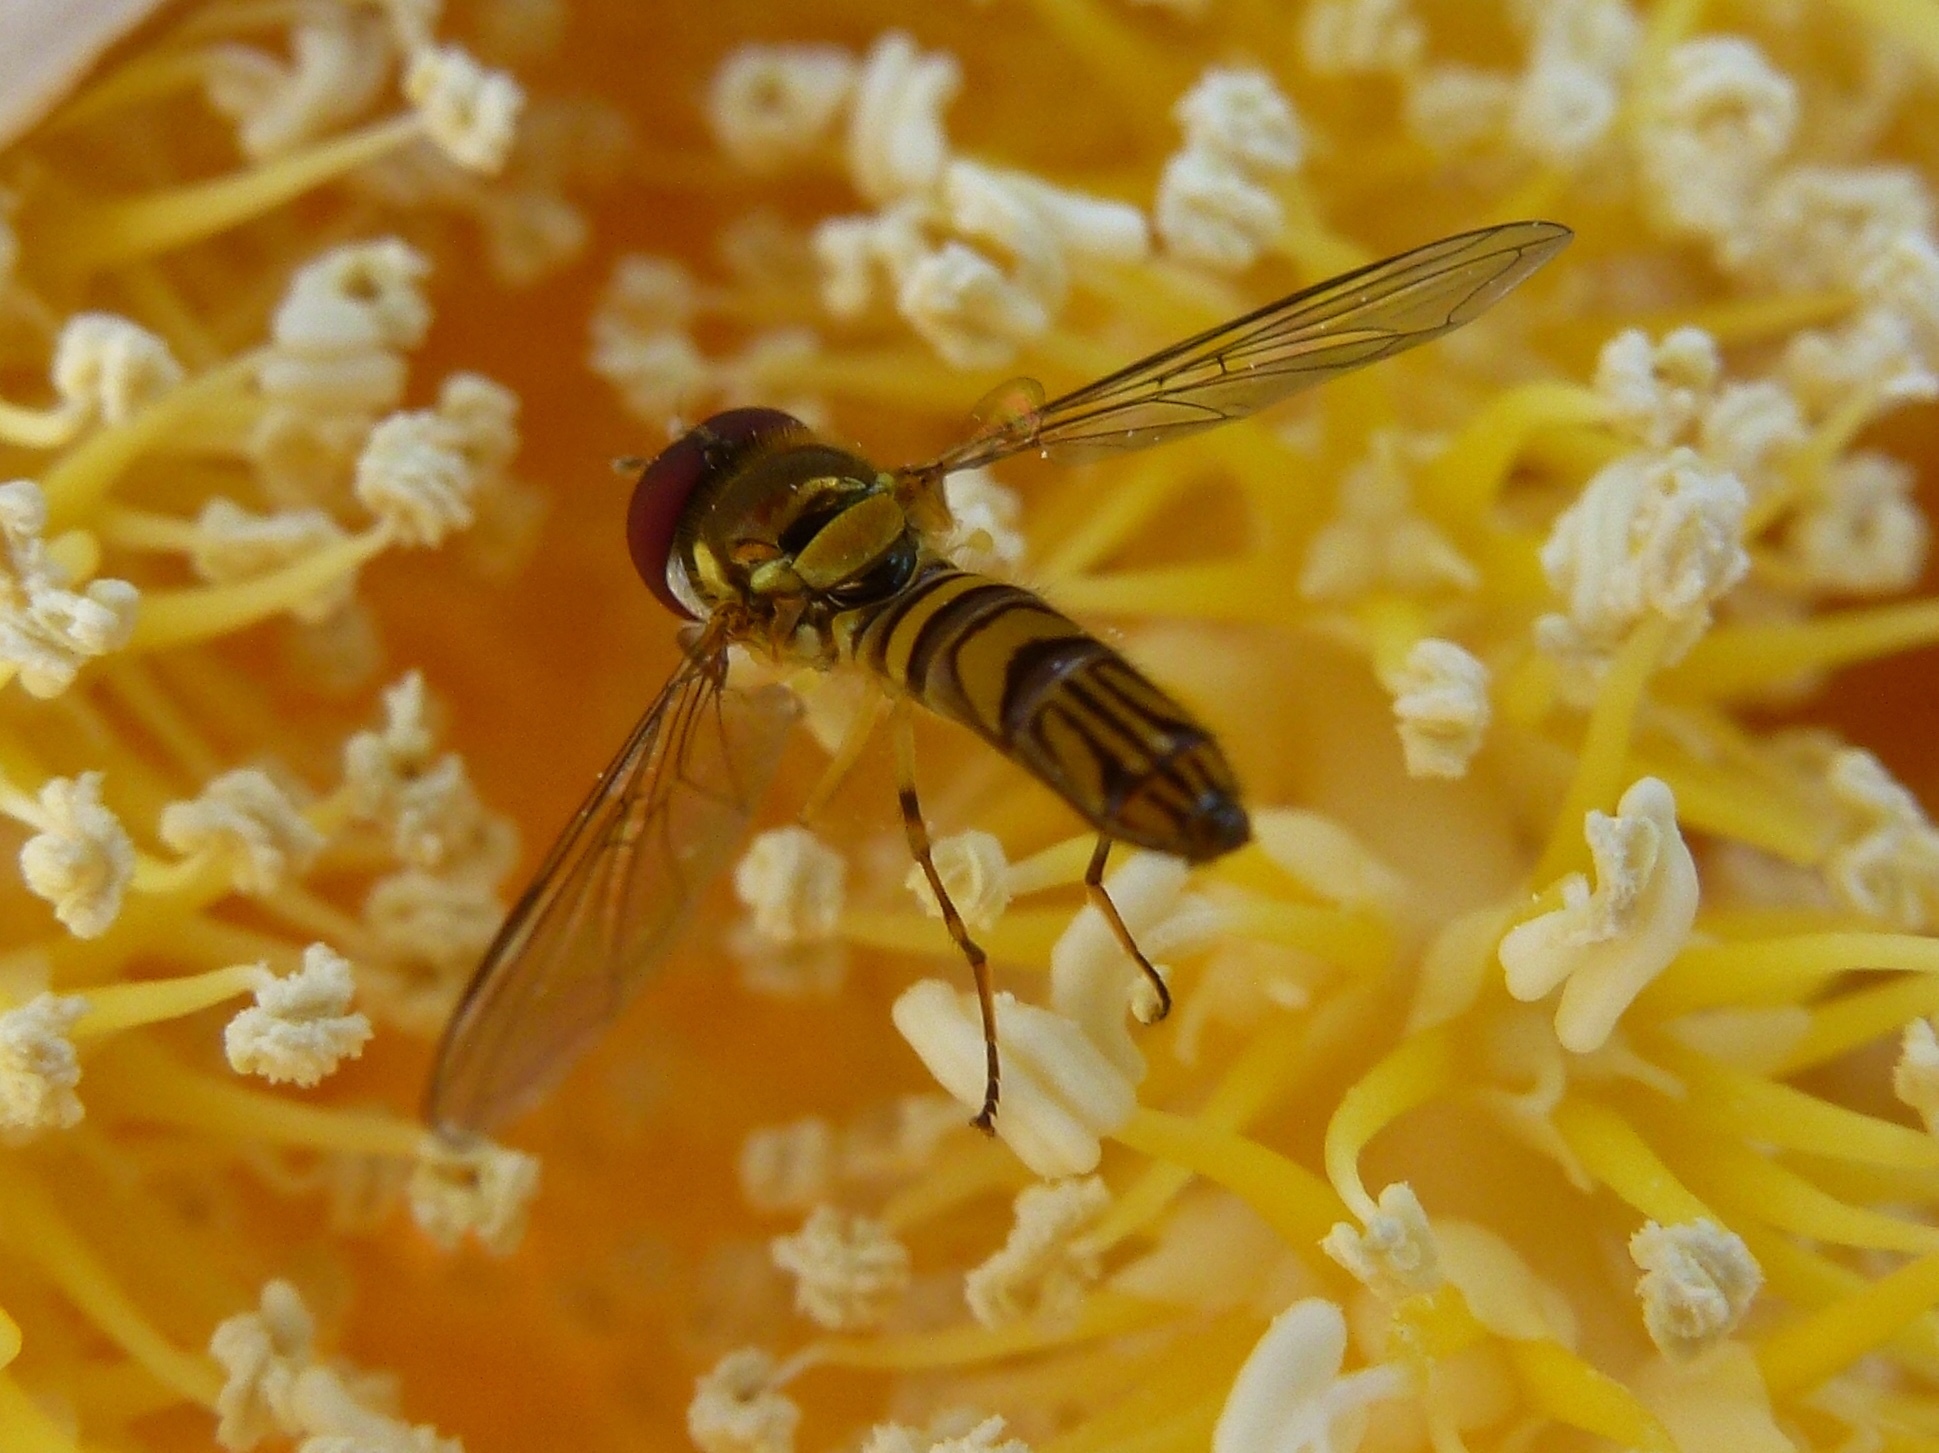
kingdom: Animalia
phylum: Arthropoda
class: Insecta
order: Diptera
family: Syrphidae
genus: Allograpta
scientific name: Allograpta obliqua
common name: Common oblique syrphid
